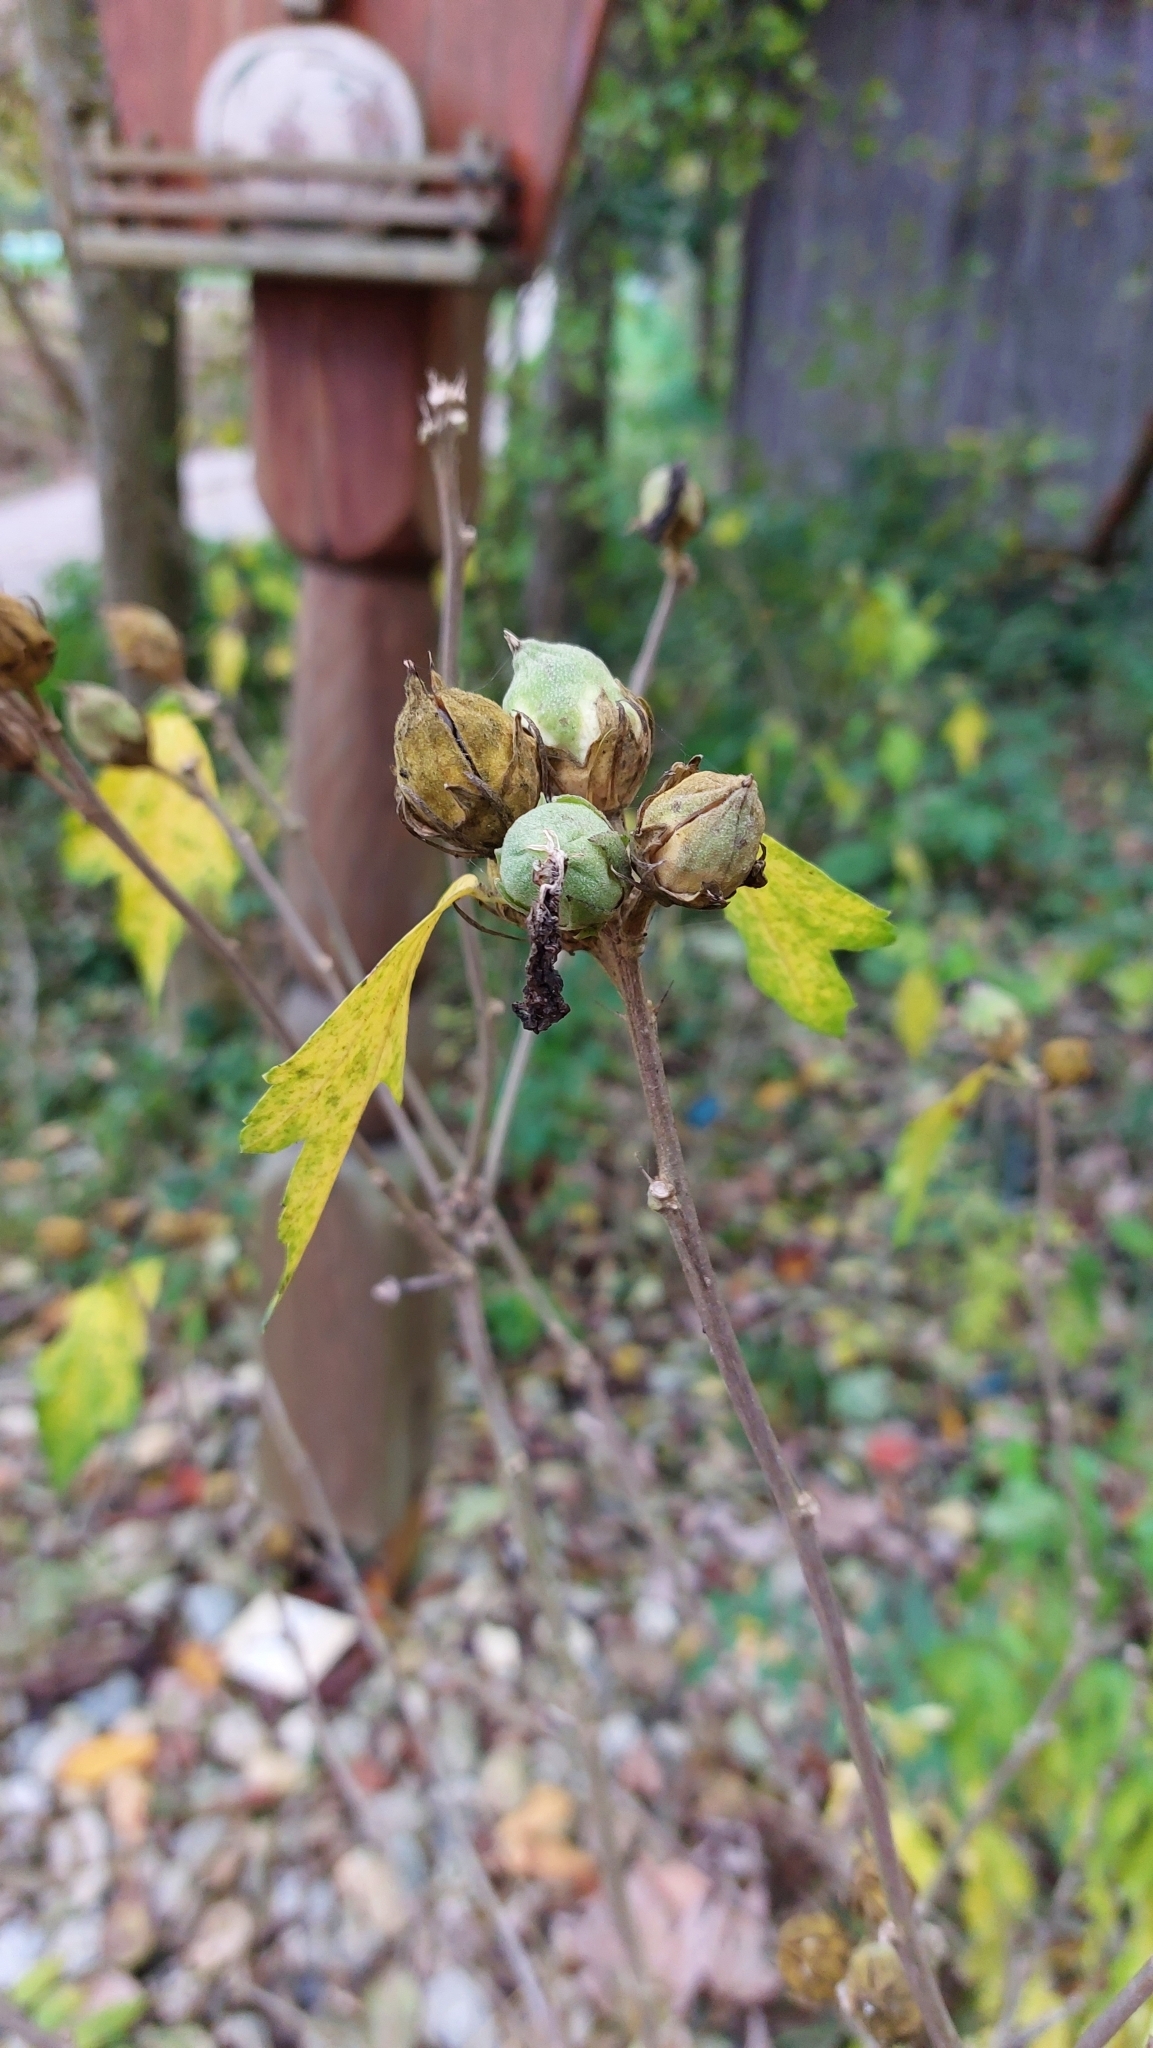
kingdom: Plantae
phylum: Tracheophyta
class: Magnoliopsida
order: Malvales
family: Malvaceae
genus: Hibiscus
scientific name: Hibiscus syriacus
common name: Syrian ketmia
